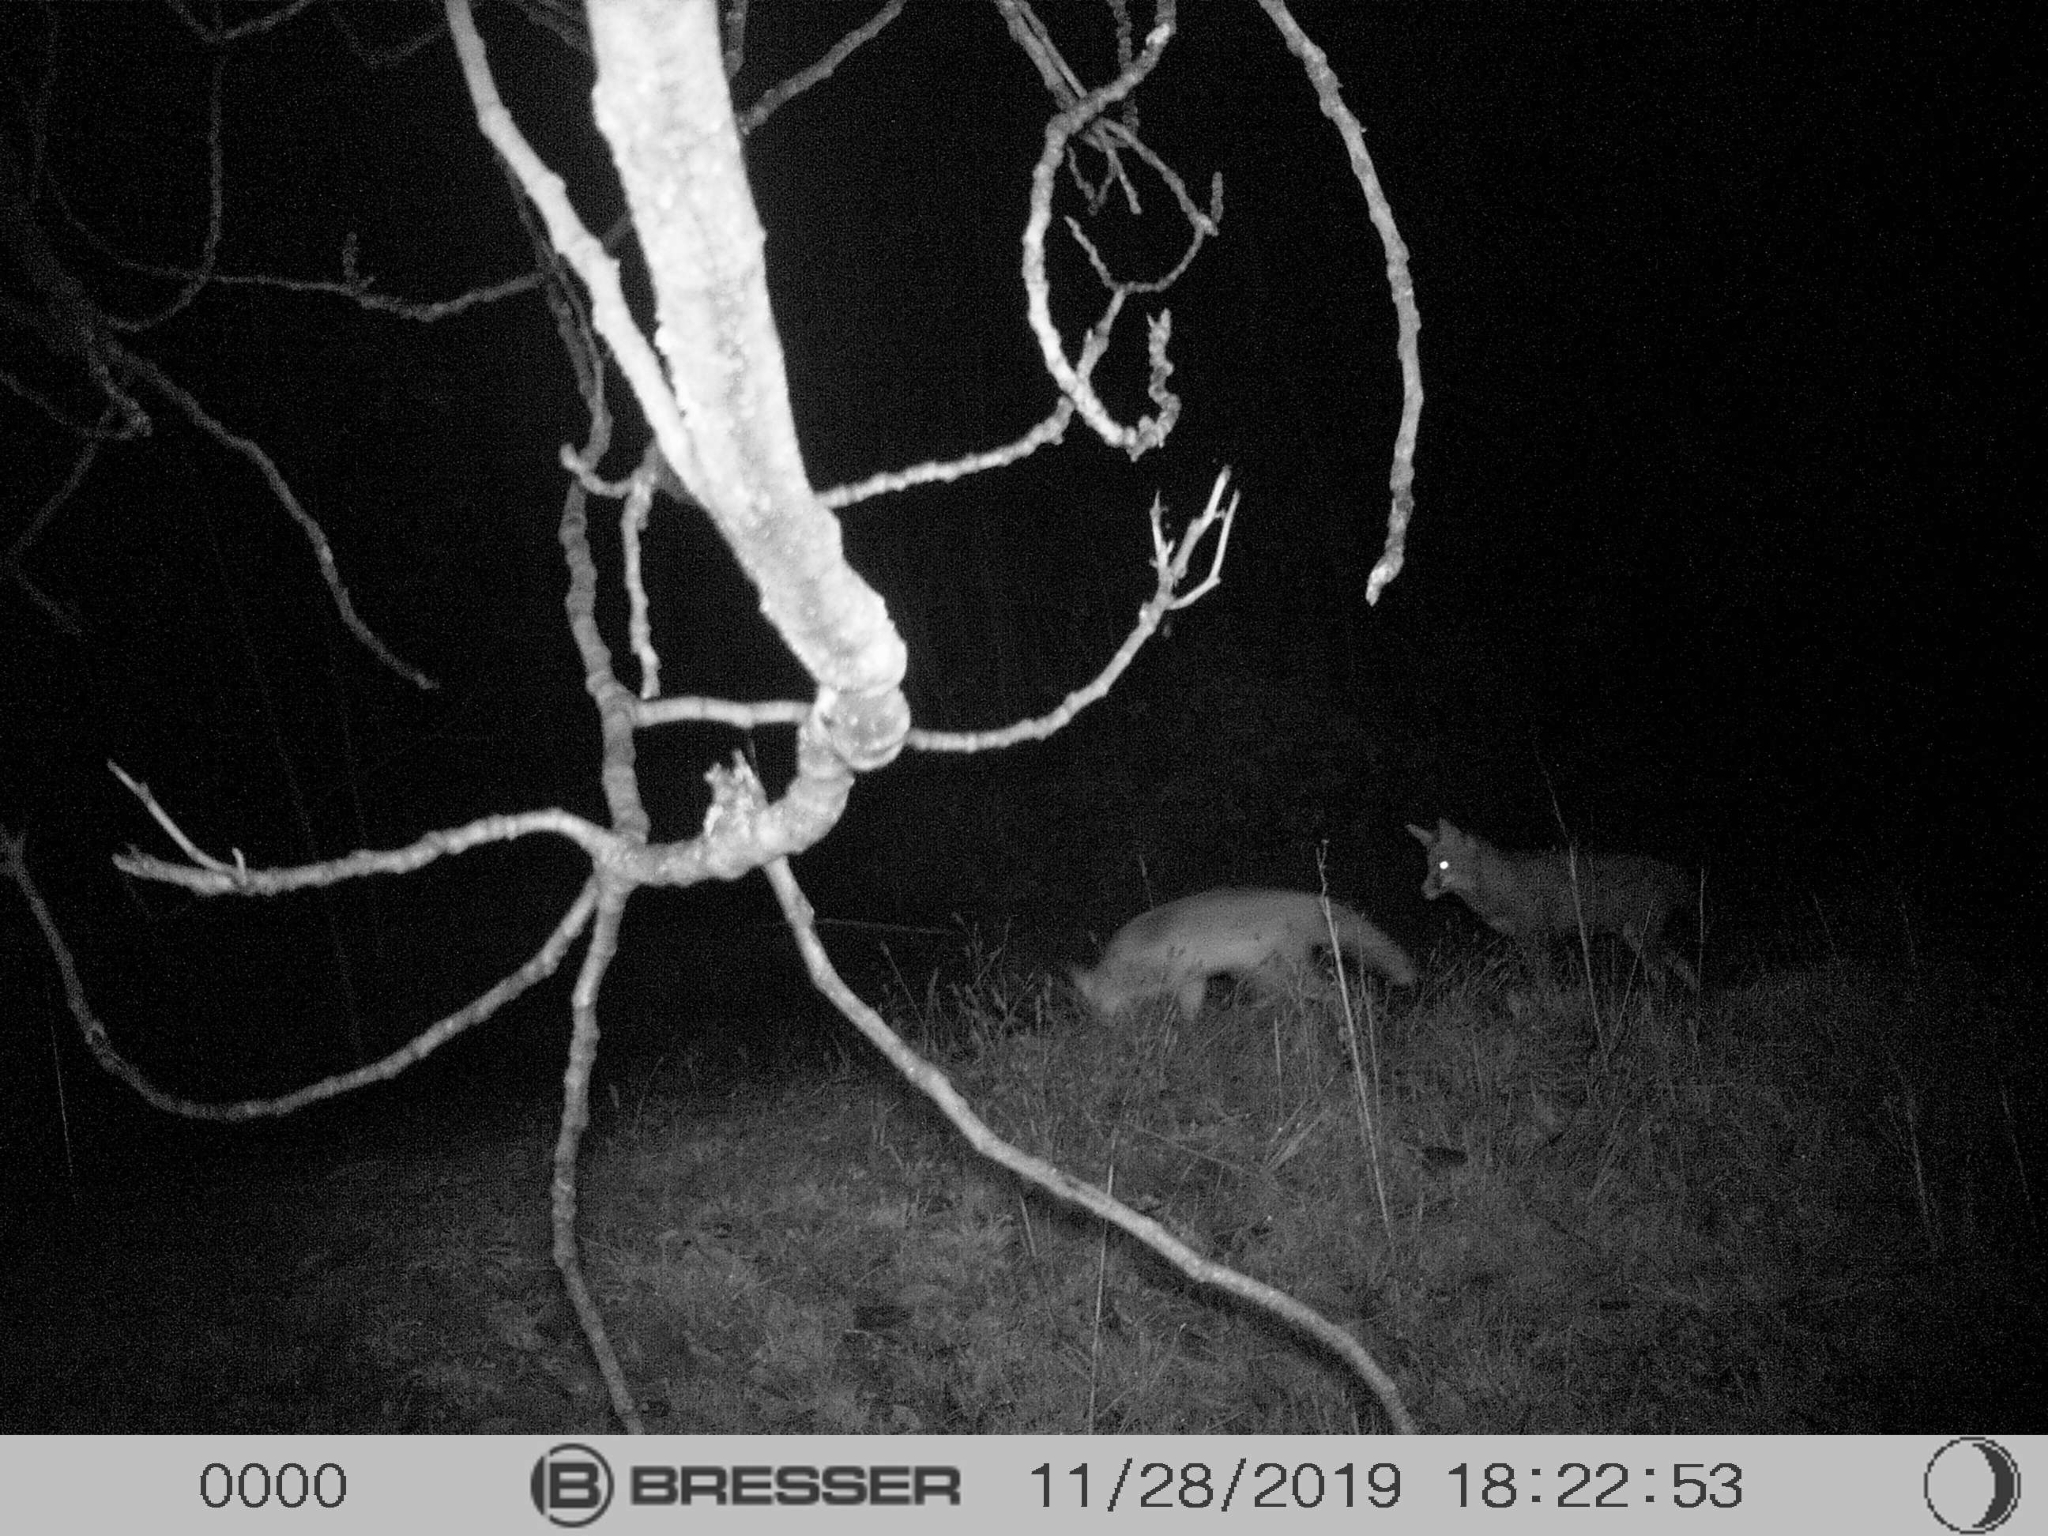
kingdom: Animalia
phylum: Chordata
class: Mammalia
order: Carnivora
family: Canidae
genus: Vulpes
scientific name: Vulpes vulpes
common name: Red fox
